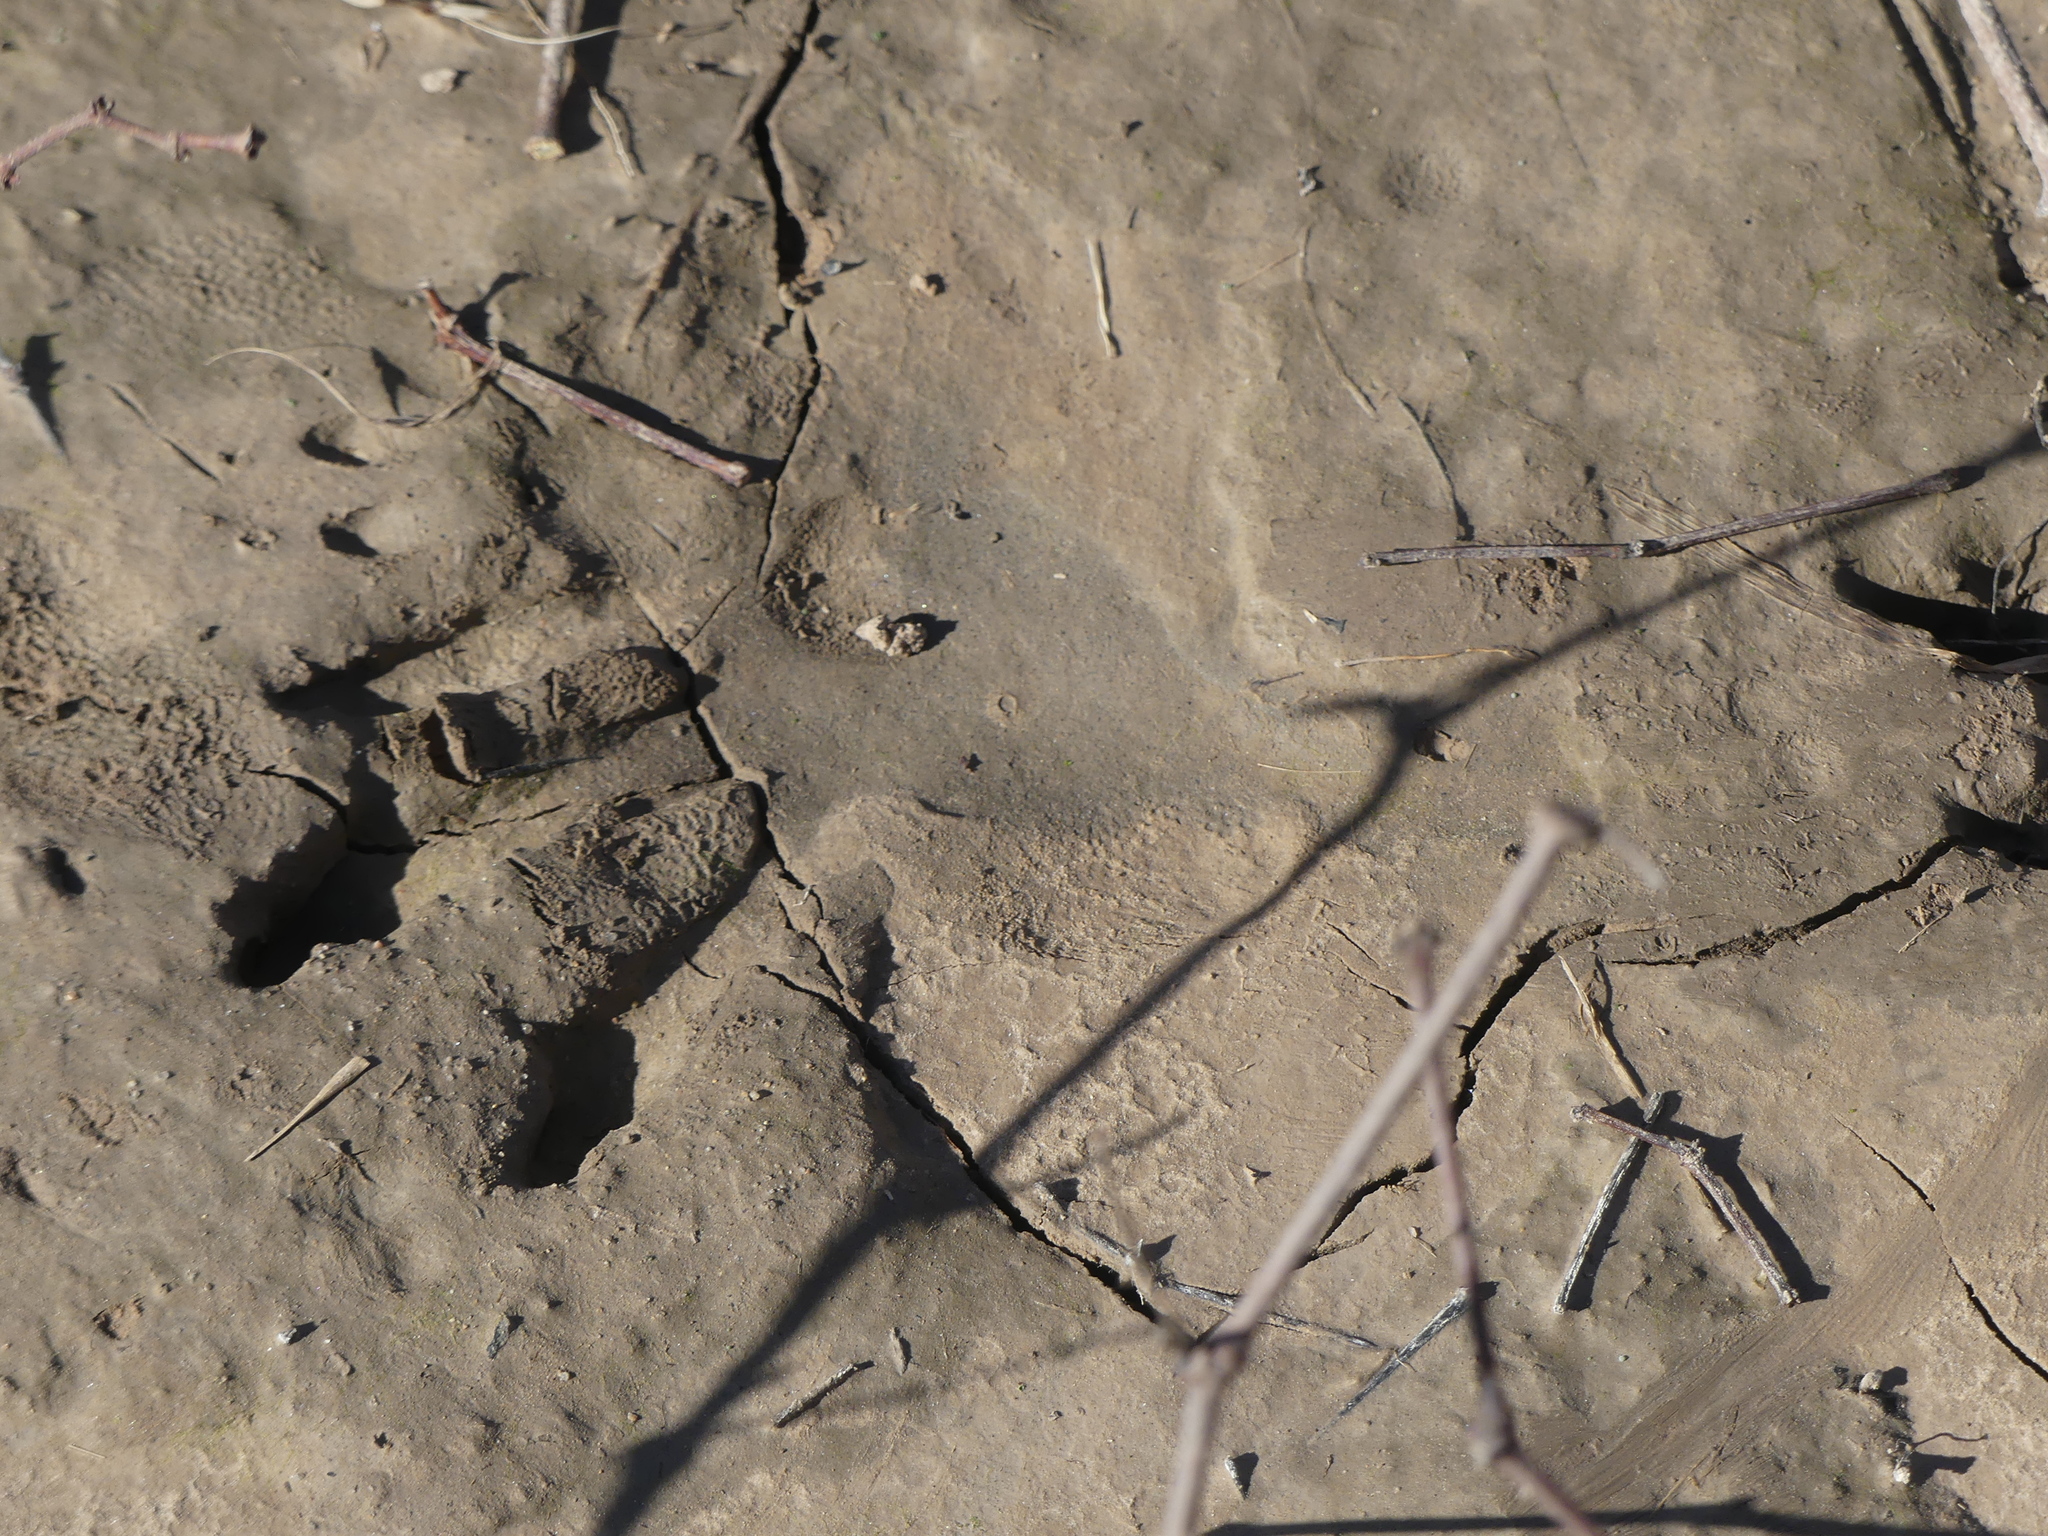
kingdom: Animalia
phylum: Chordata
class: Mammalia
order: Rodentia
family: Castoridae
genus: Castor
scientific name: Castor canadensis
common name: American beaver
